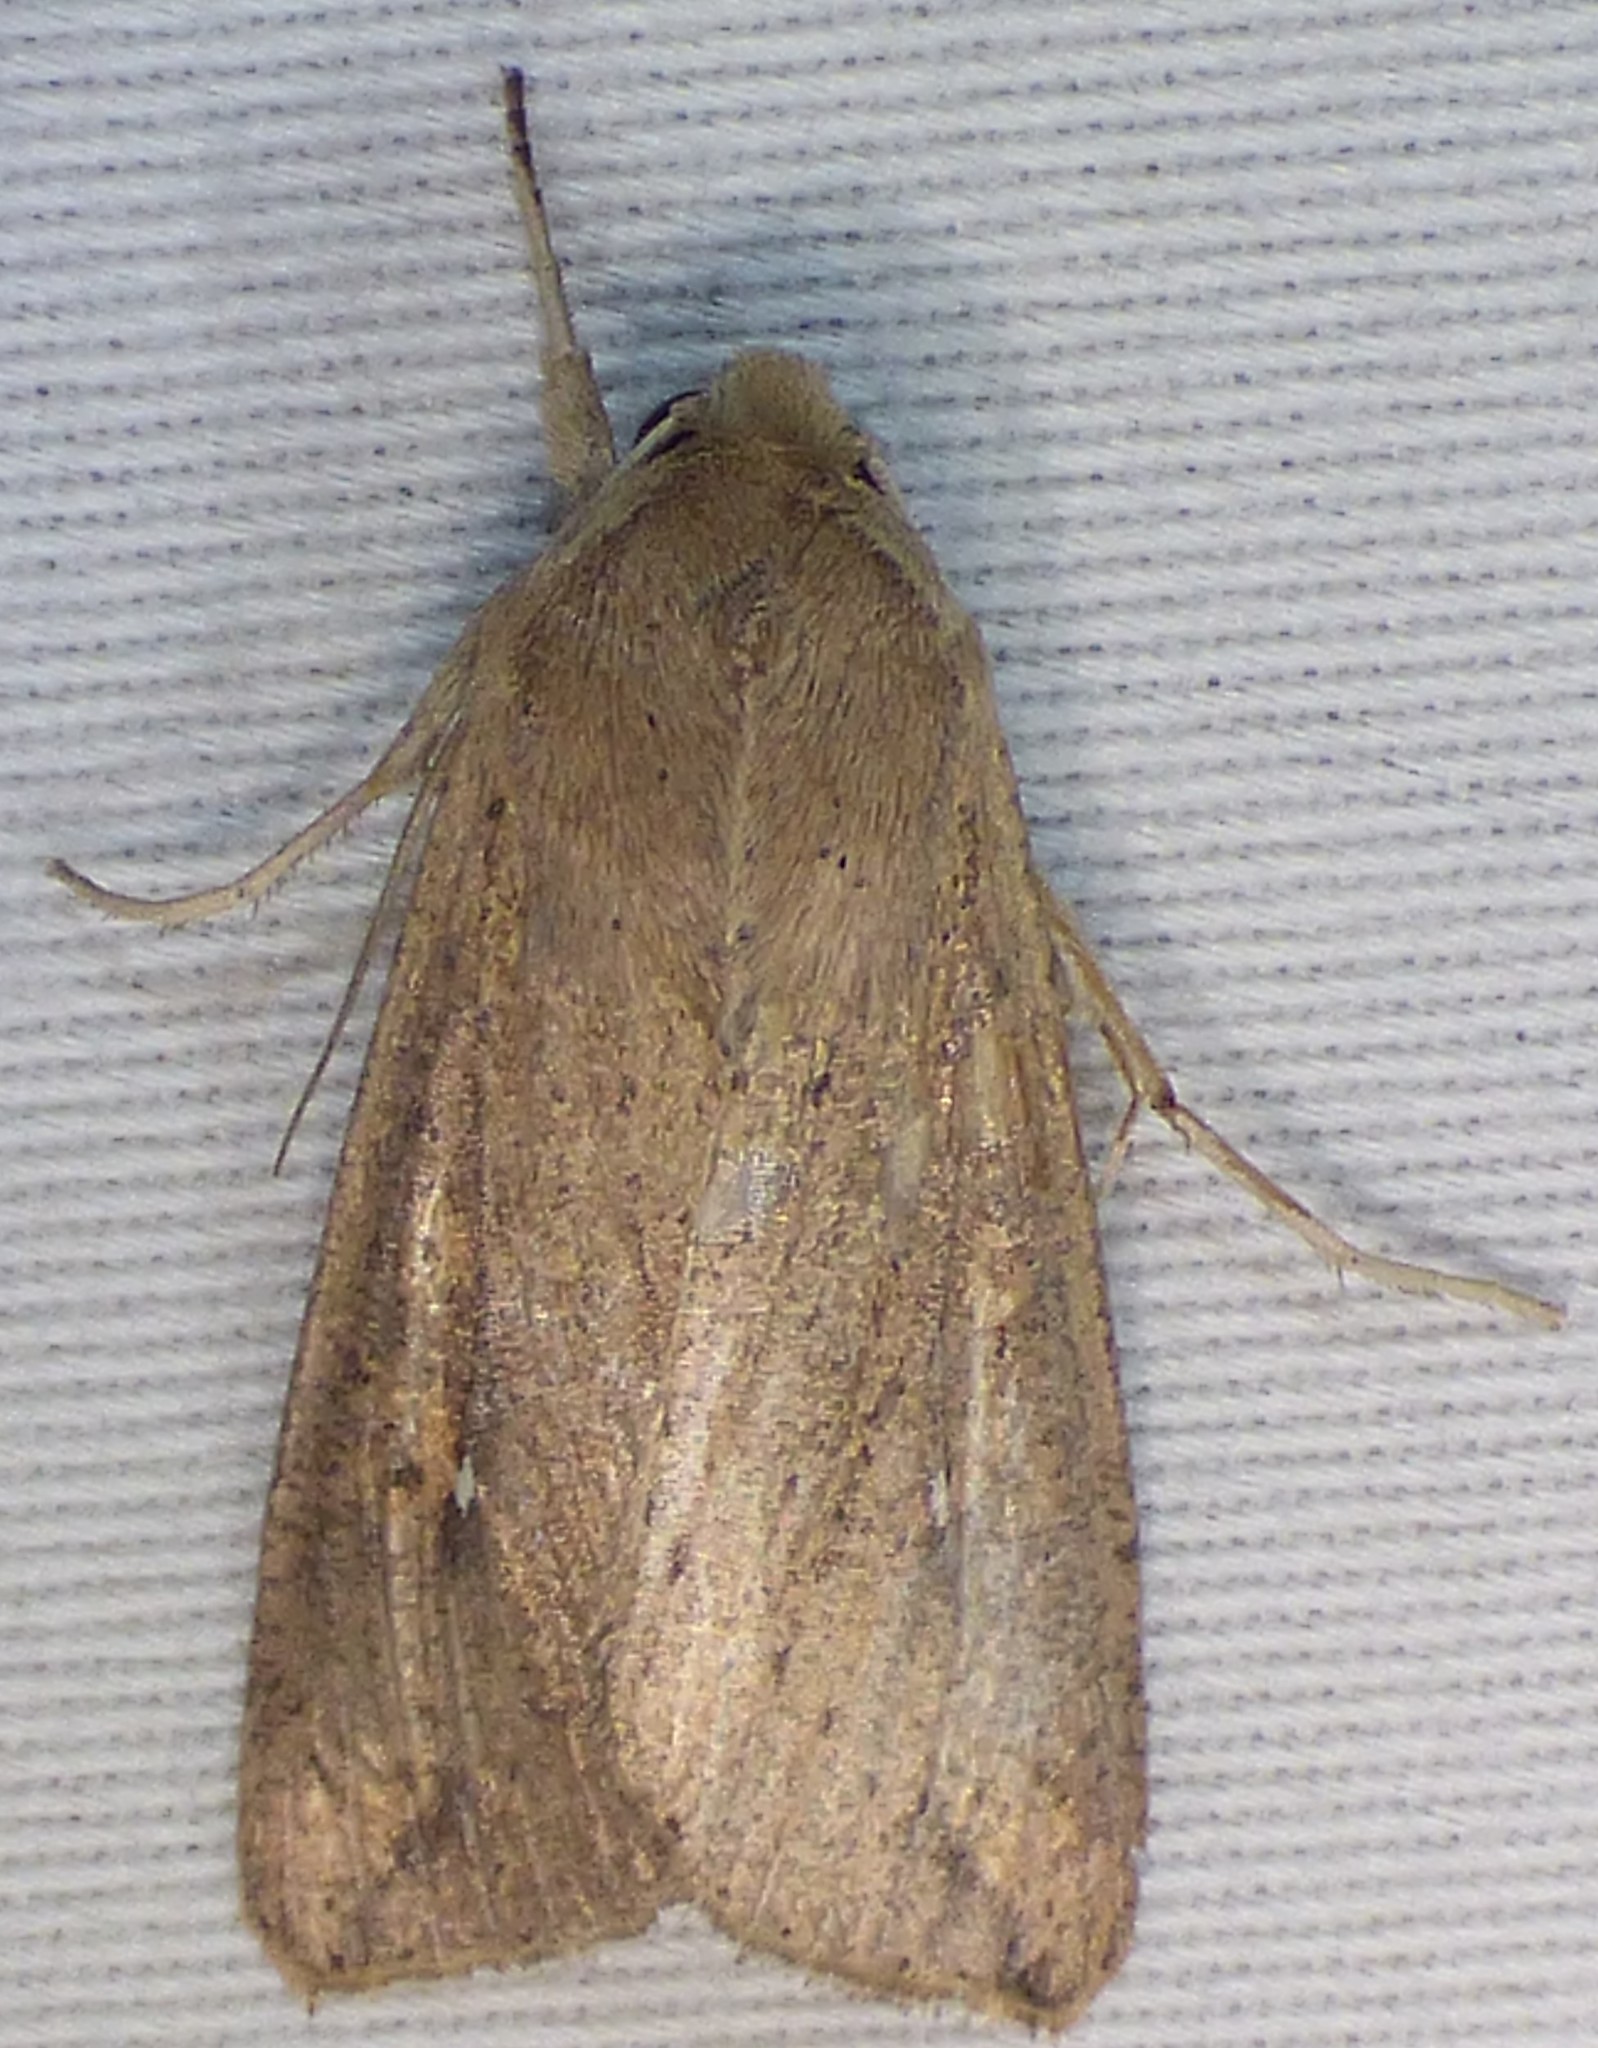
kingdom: Animalia
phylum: Arthropoda
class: Insecta
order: Lepidoptera
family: Noctuidae
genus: Mythimna
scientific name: Mythimna unipuncta
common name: White-speck
